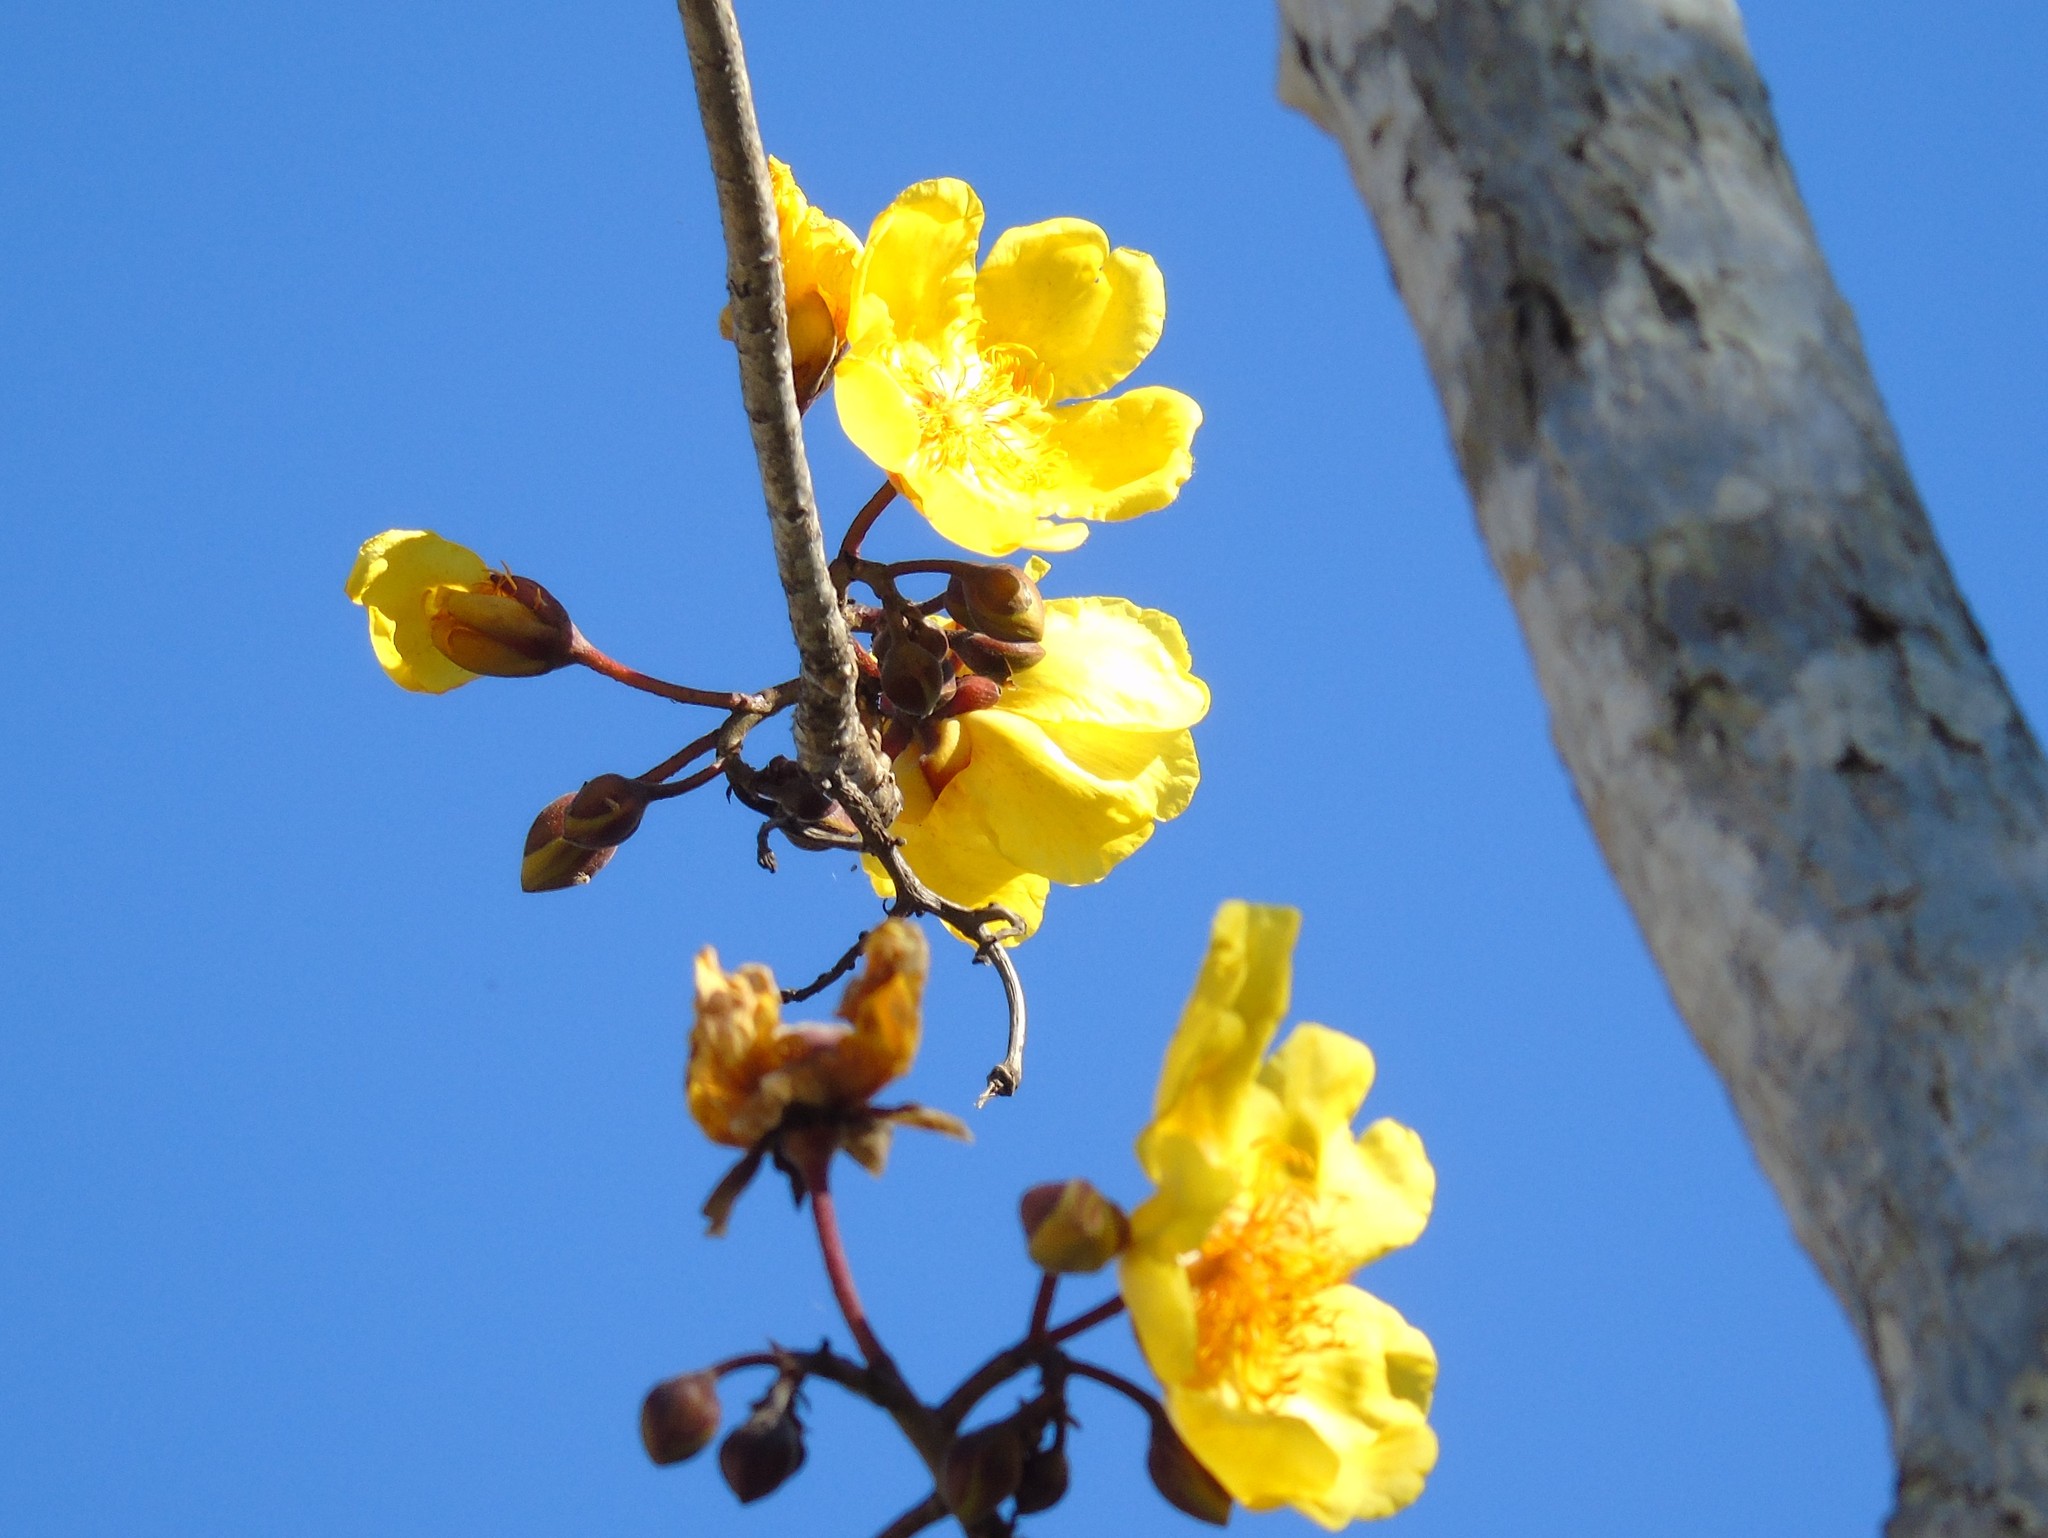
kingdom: Plantae
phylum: Tracheophyta
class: Magnoliopsida
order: Malvales
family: Cochlospermaceae
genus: Cochlospermum
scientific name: Cochlospermum vitifolium
